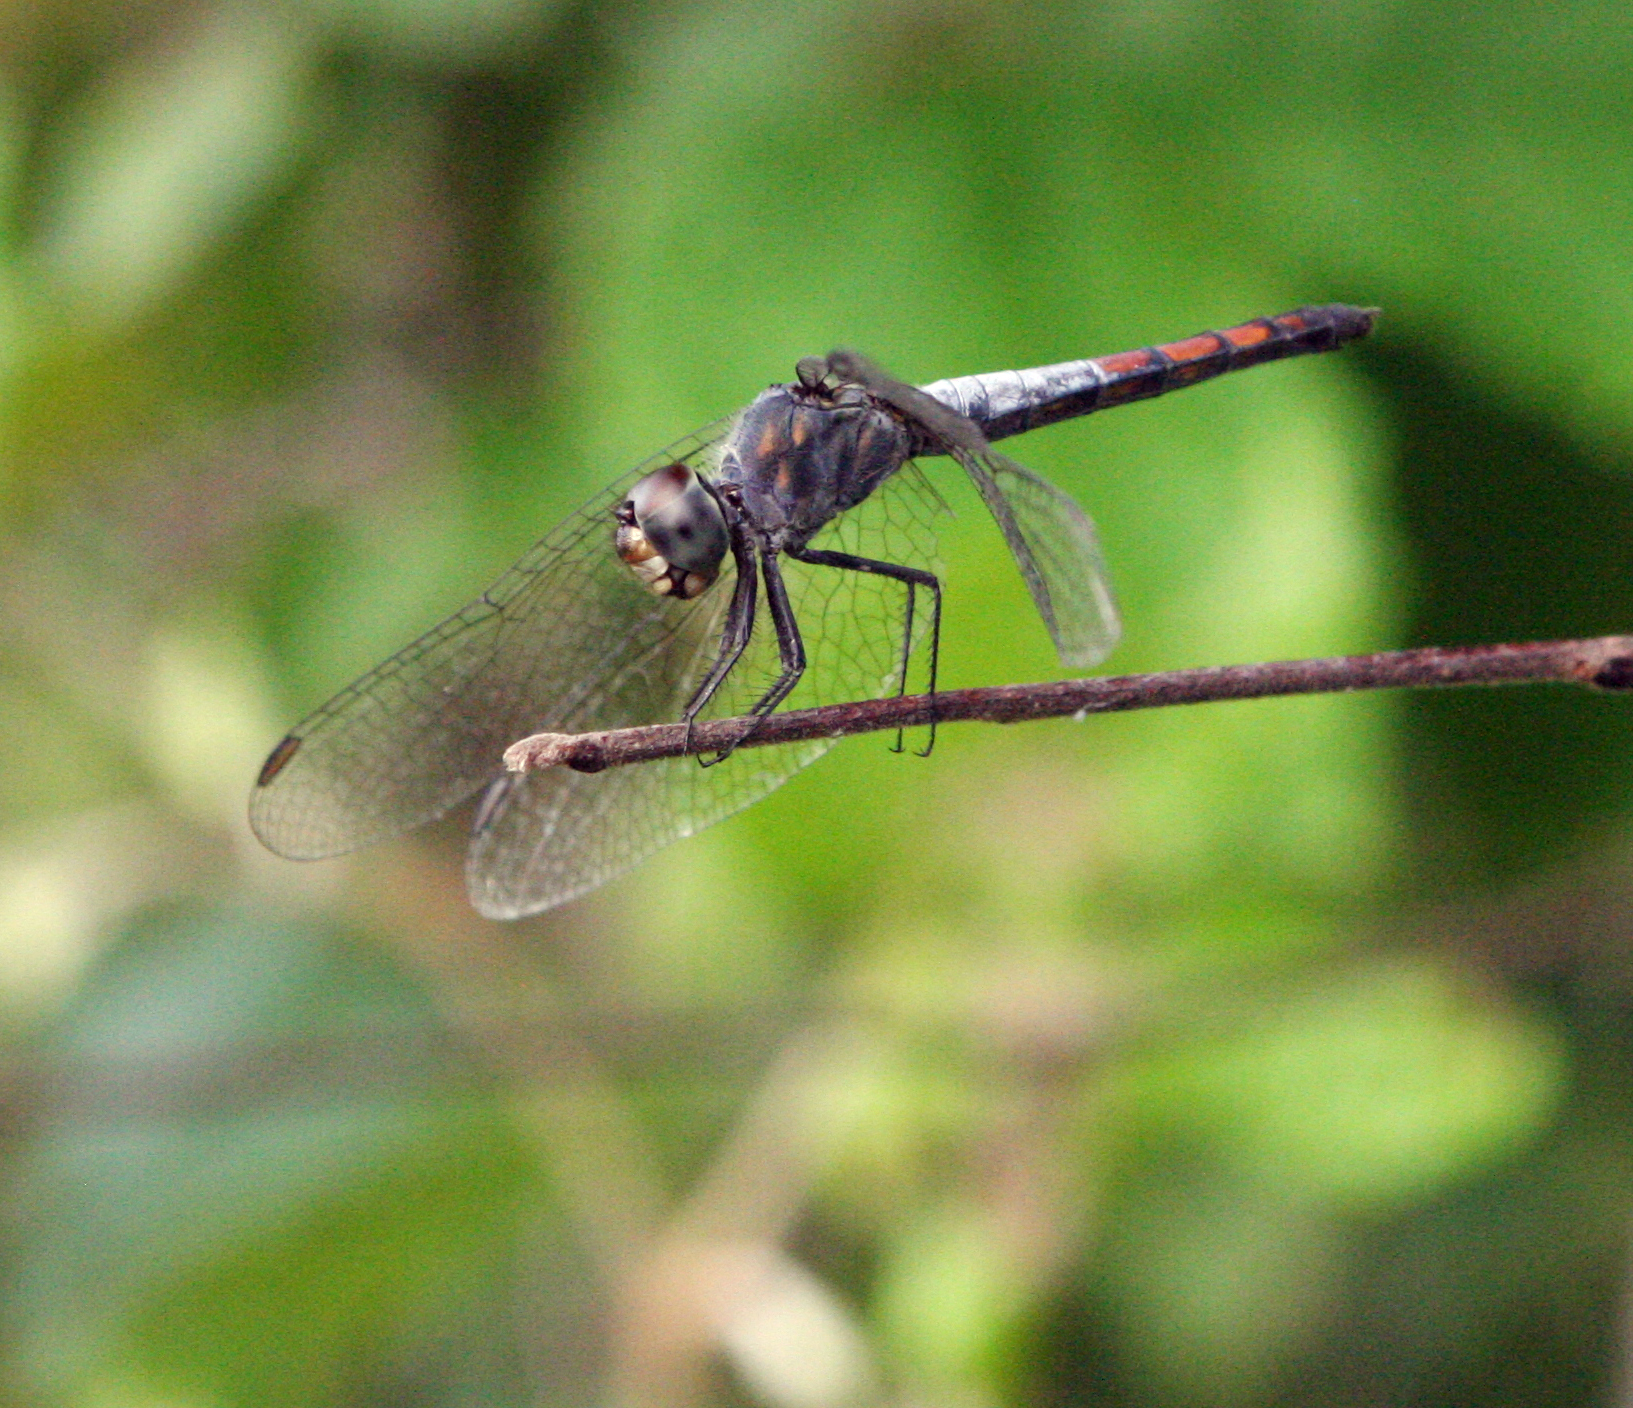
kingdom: Animalia
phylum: Arthropoda
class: Insecta
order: Odonata
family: Libellulidae
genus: Brachydiplax
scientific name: Brachydiplax farinosa
